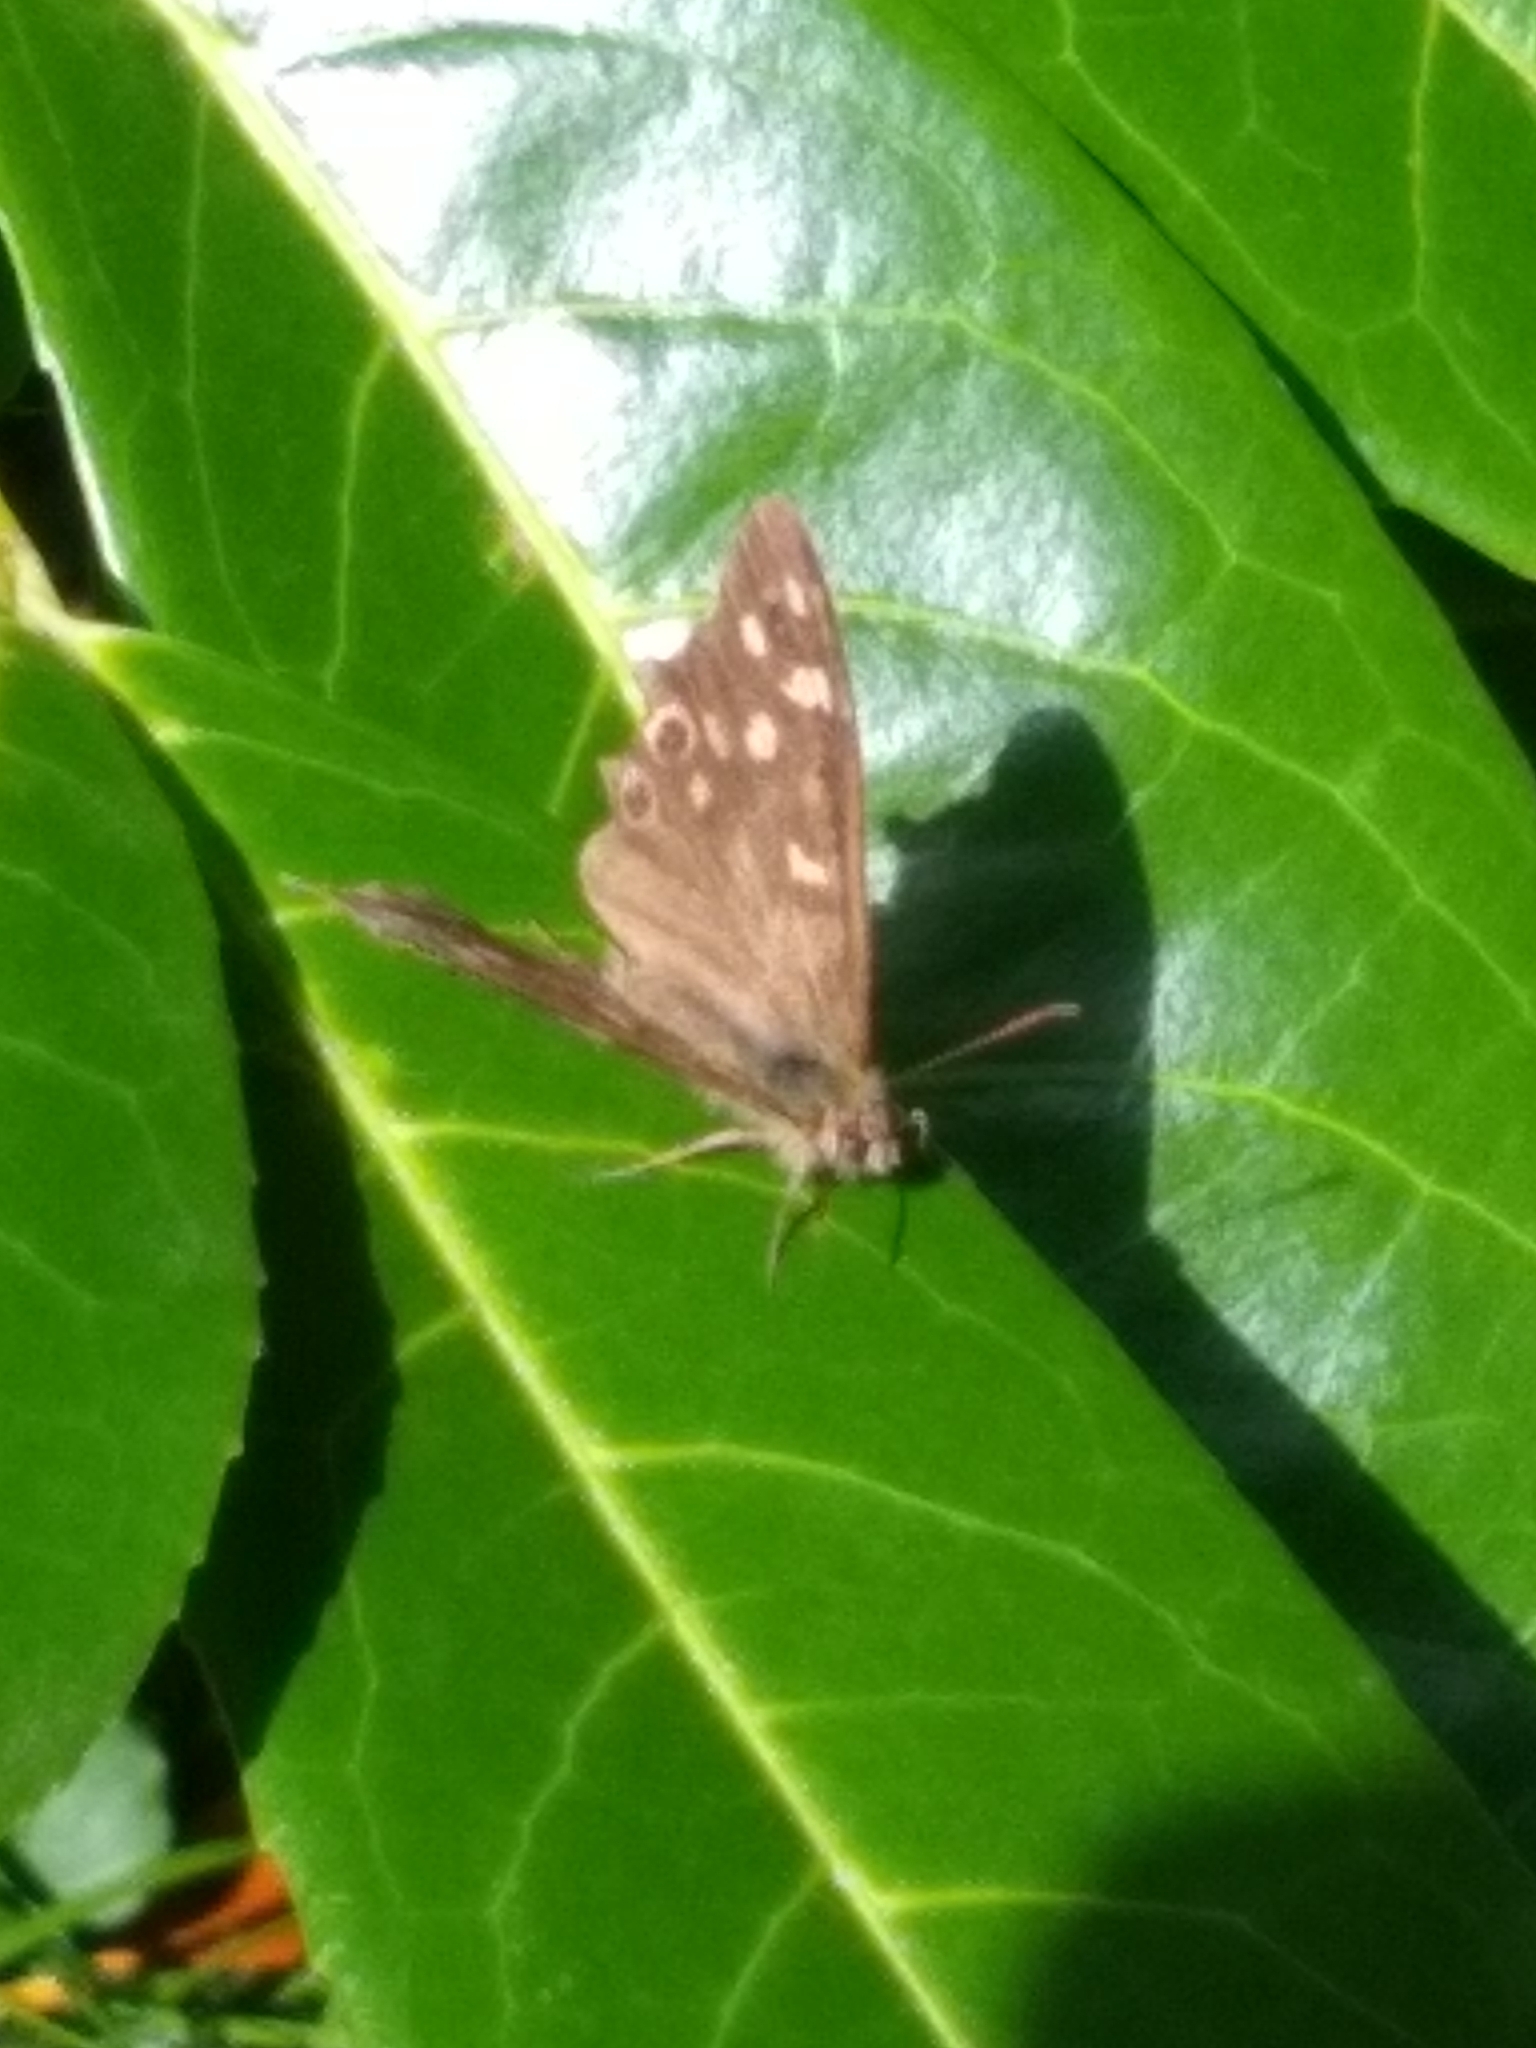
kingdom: Animalia
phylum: Arthropoda
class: Insecta
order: Lepidoptera
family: Nymphalidae
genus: Pararge
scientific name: Pararge aegeria
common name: Speckled wood
